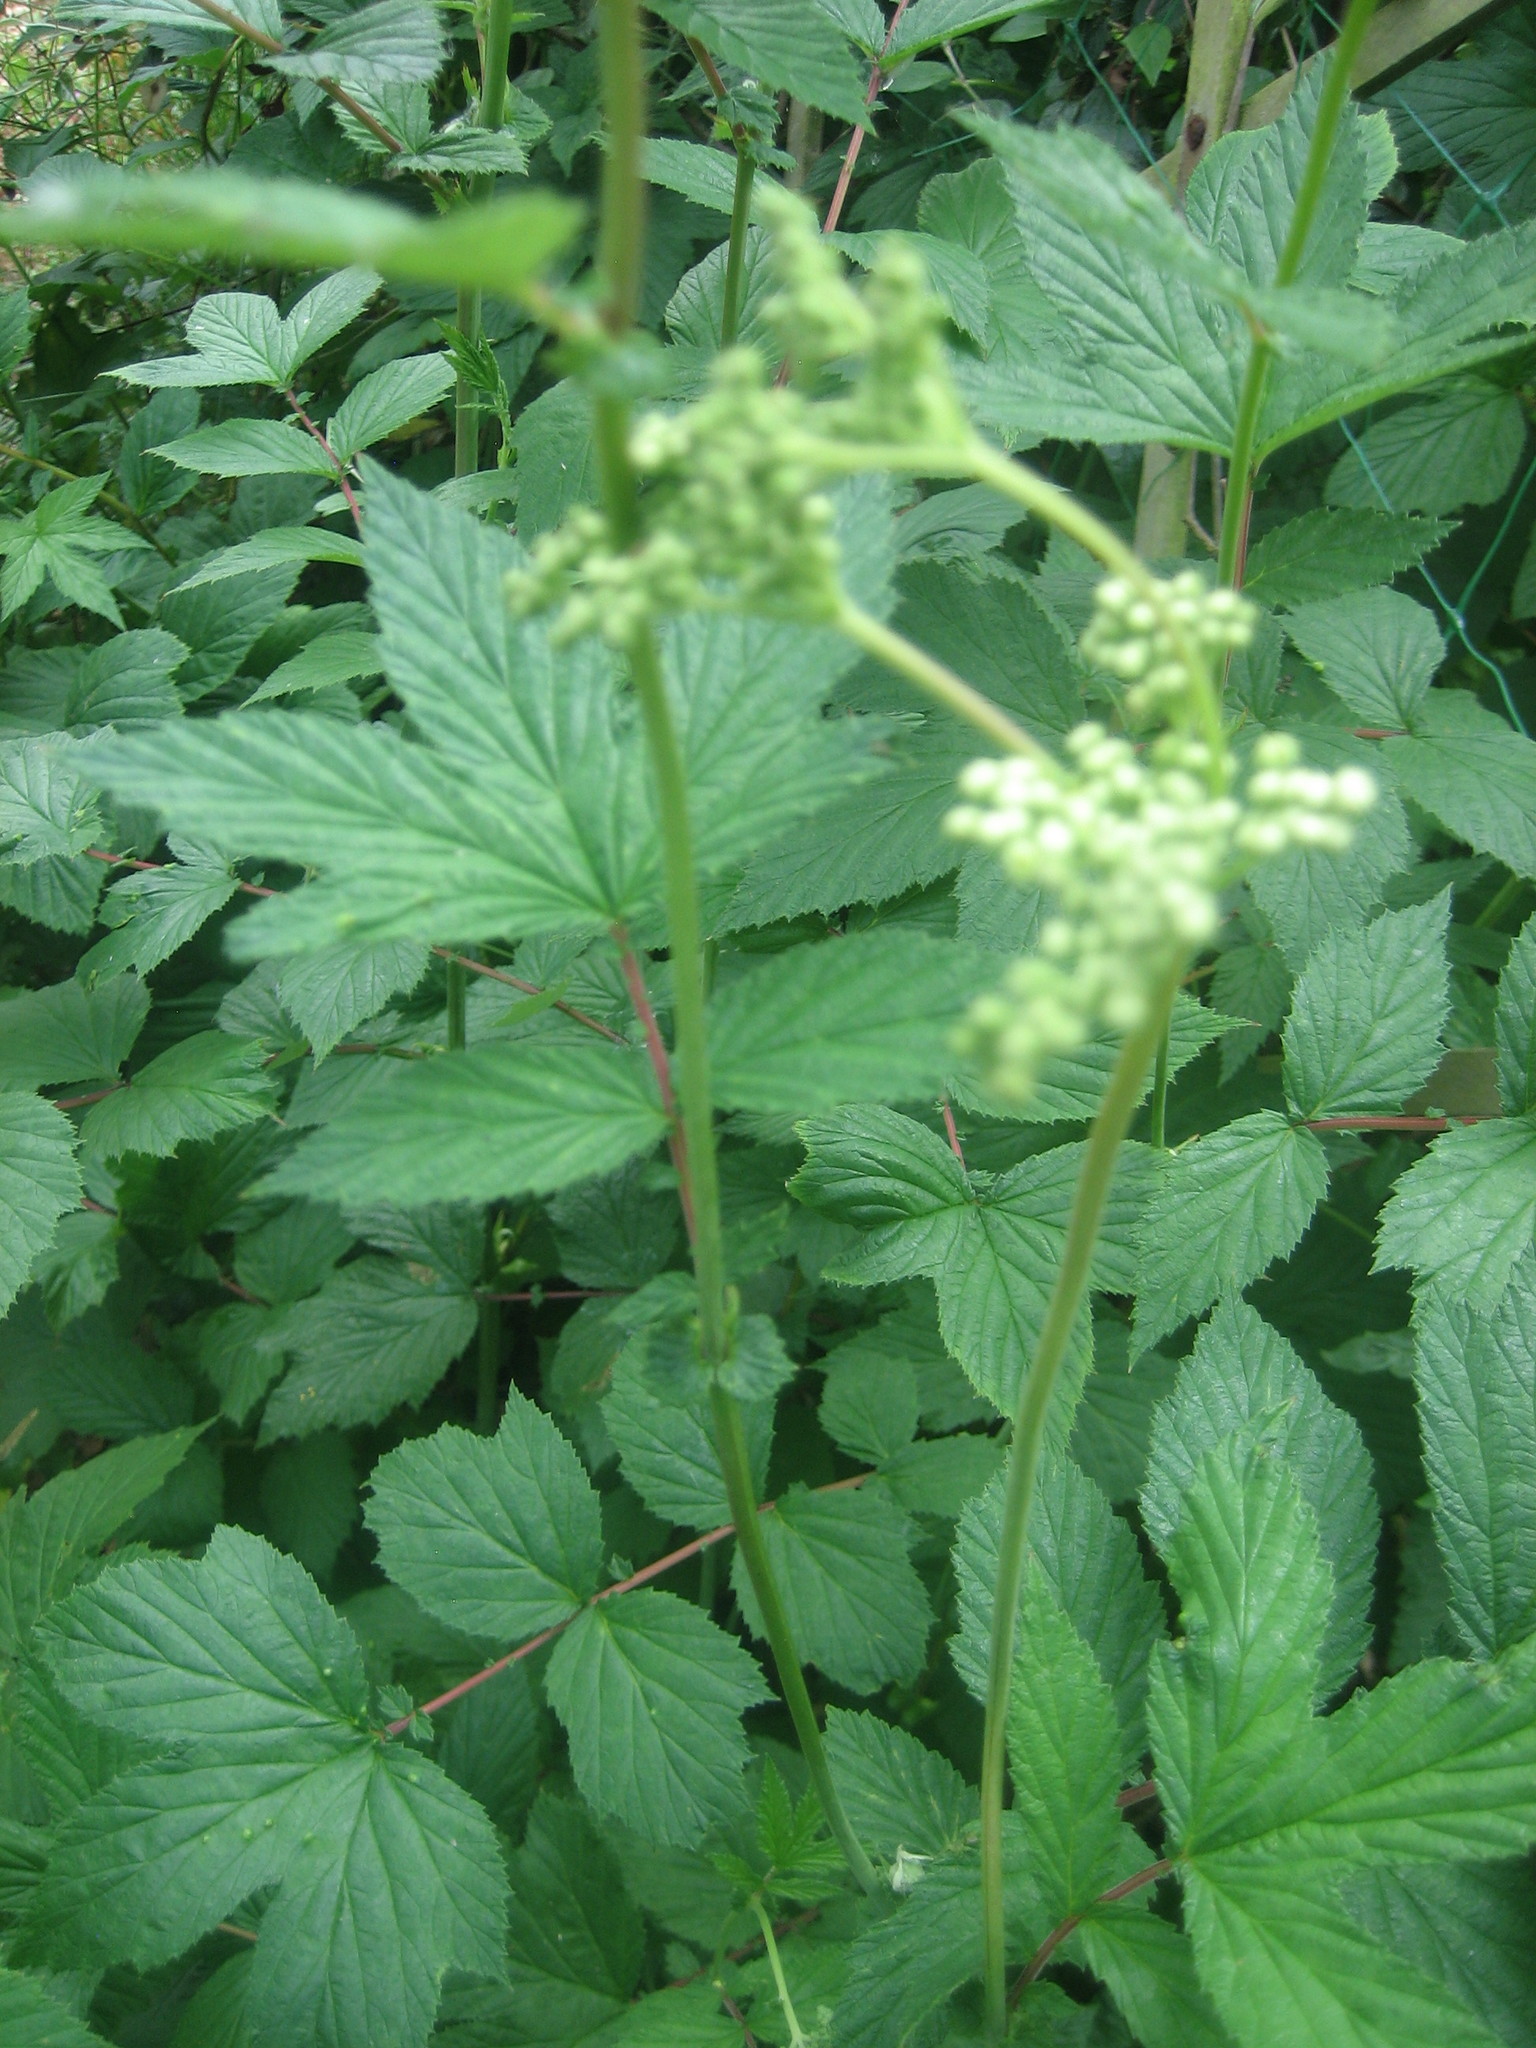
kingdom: Plantae
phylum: Tracheophyta
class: Magnoliopsida
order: Rosales
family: Rosaceae
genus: Filipendula
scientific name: Filipendula ulmaria
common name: Meadowsweet
